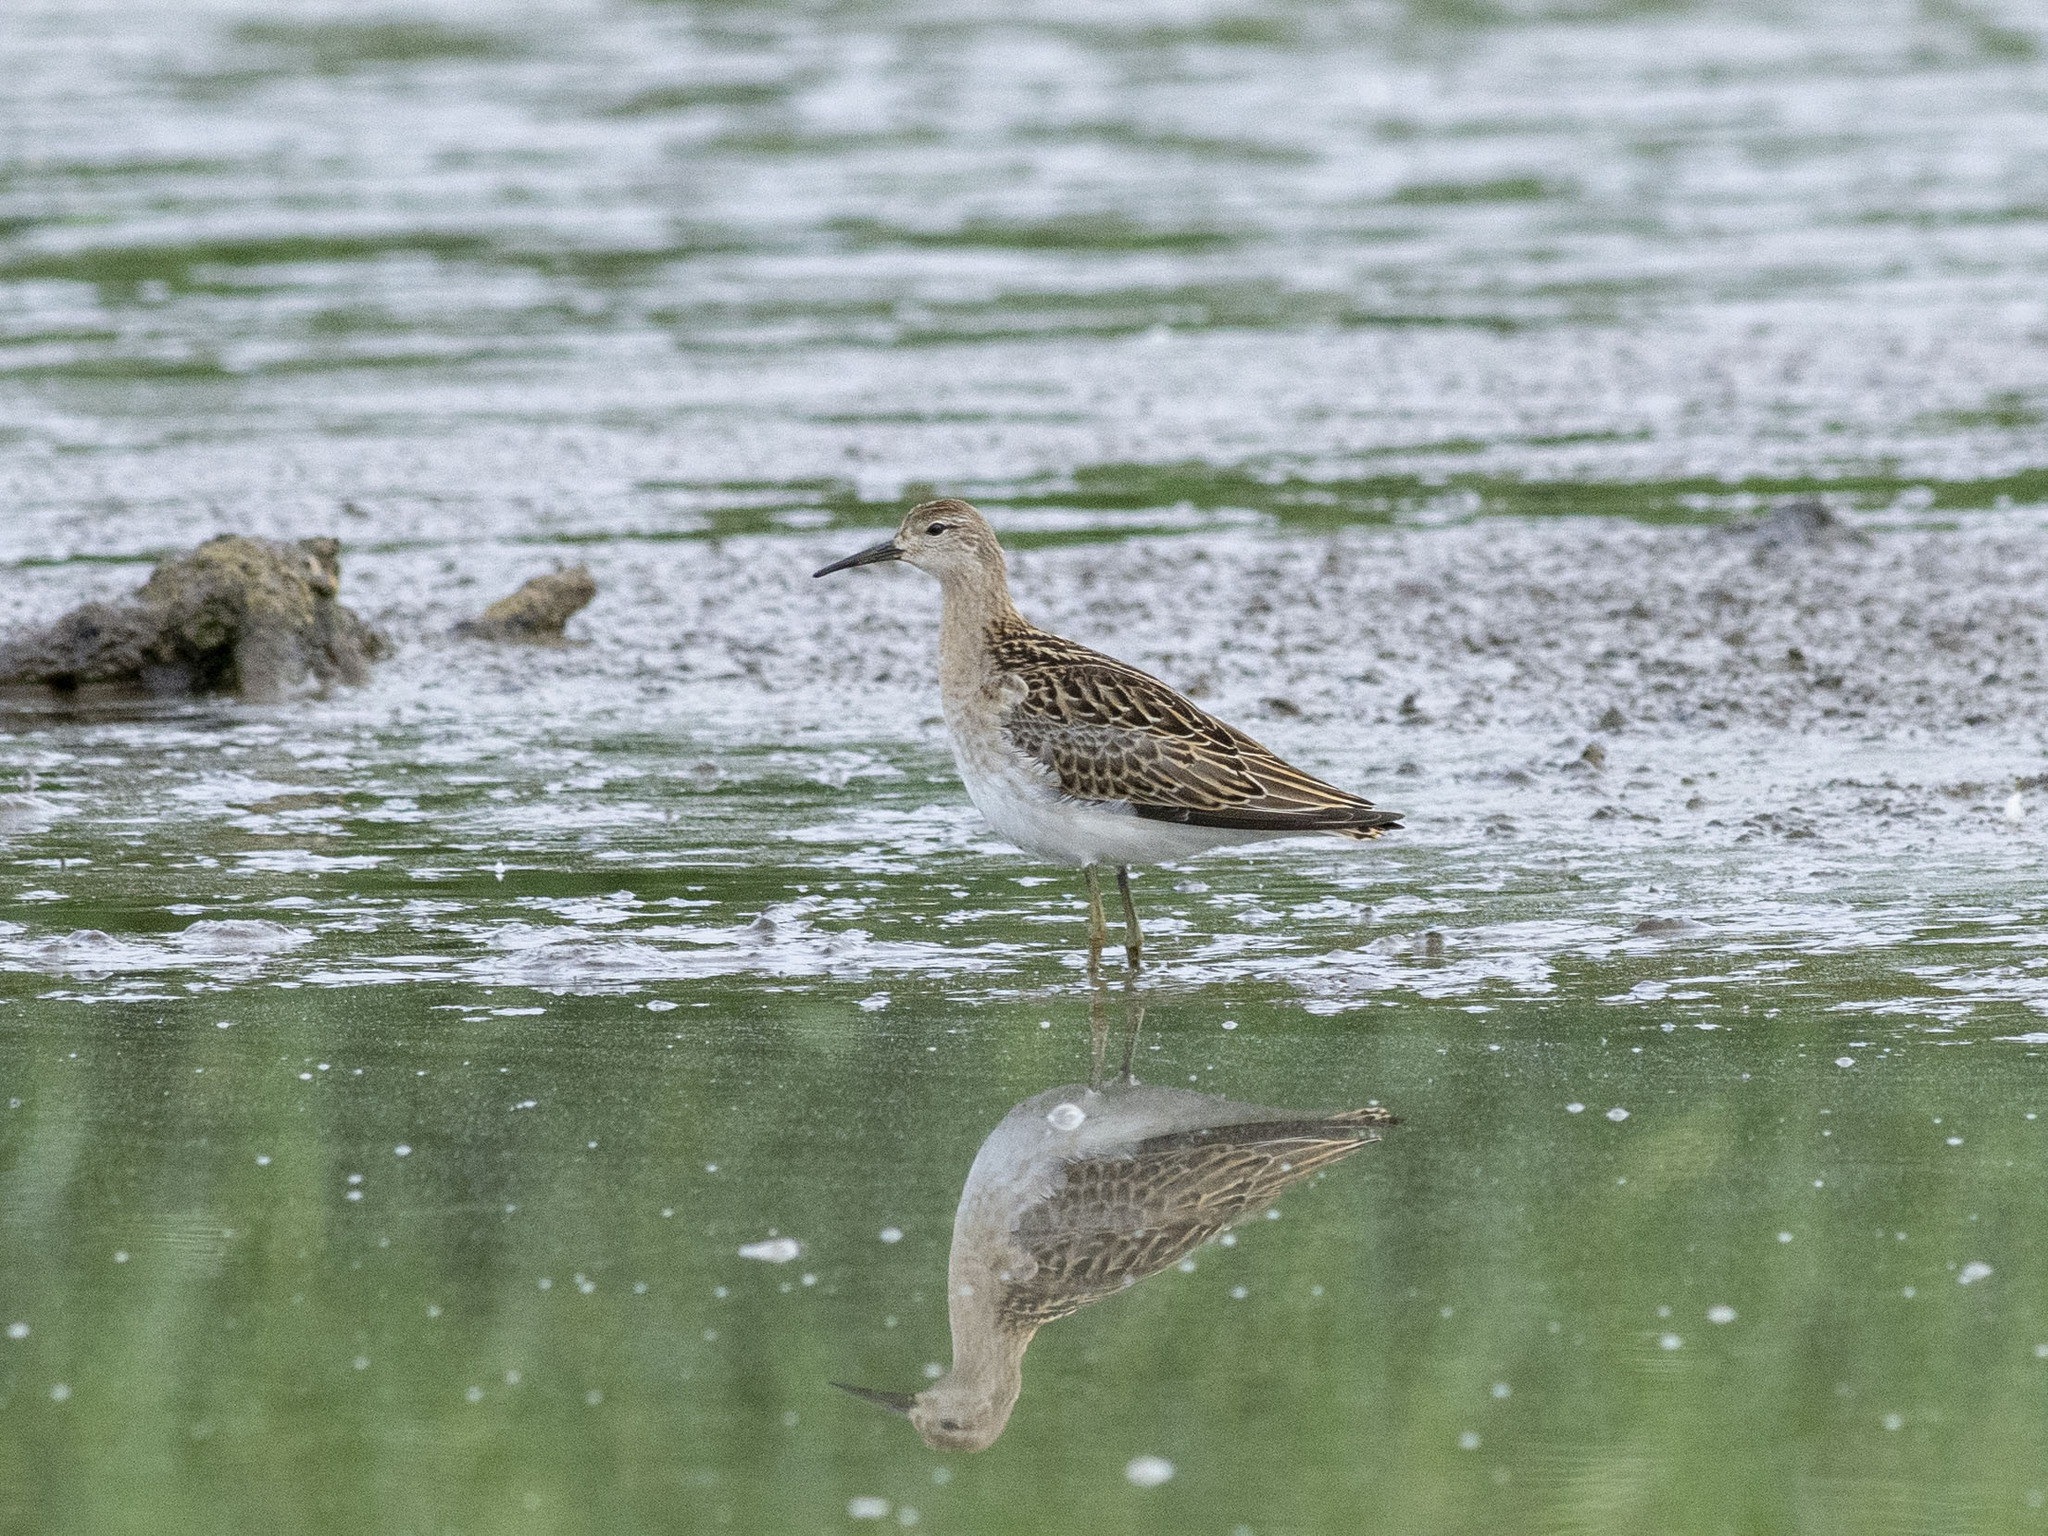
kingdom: Animalia
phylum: Chordata
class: Aves
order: Charadriiformes
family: Scolopacidae
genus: Calidris
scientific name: Calidris pugnax
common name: Ruff
